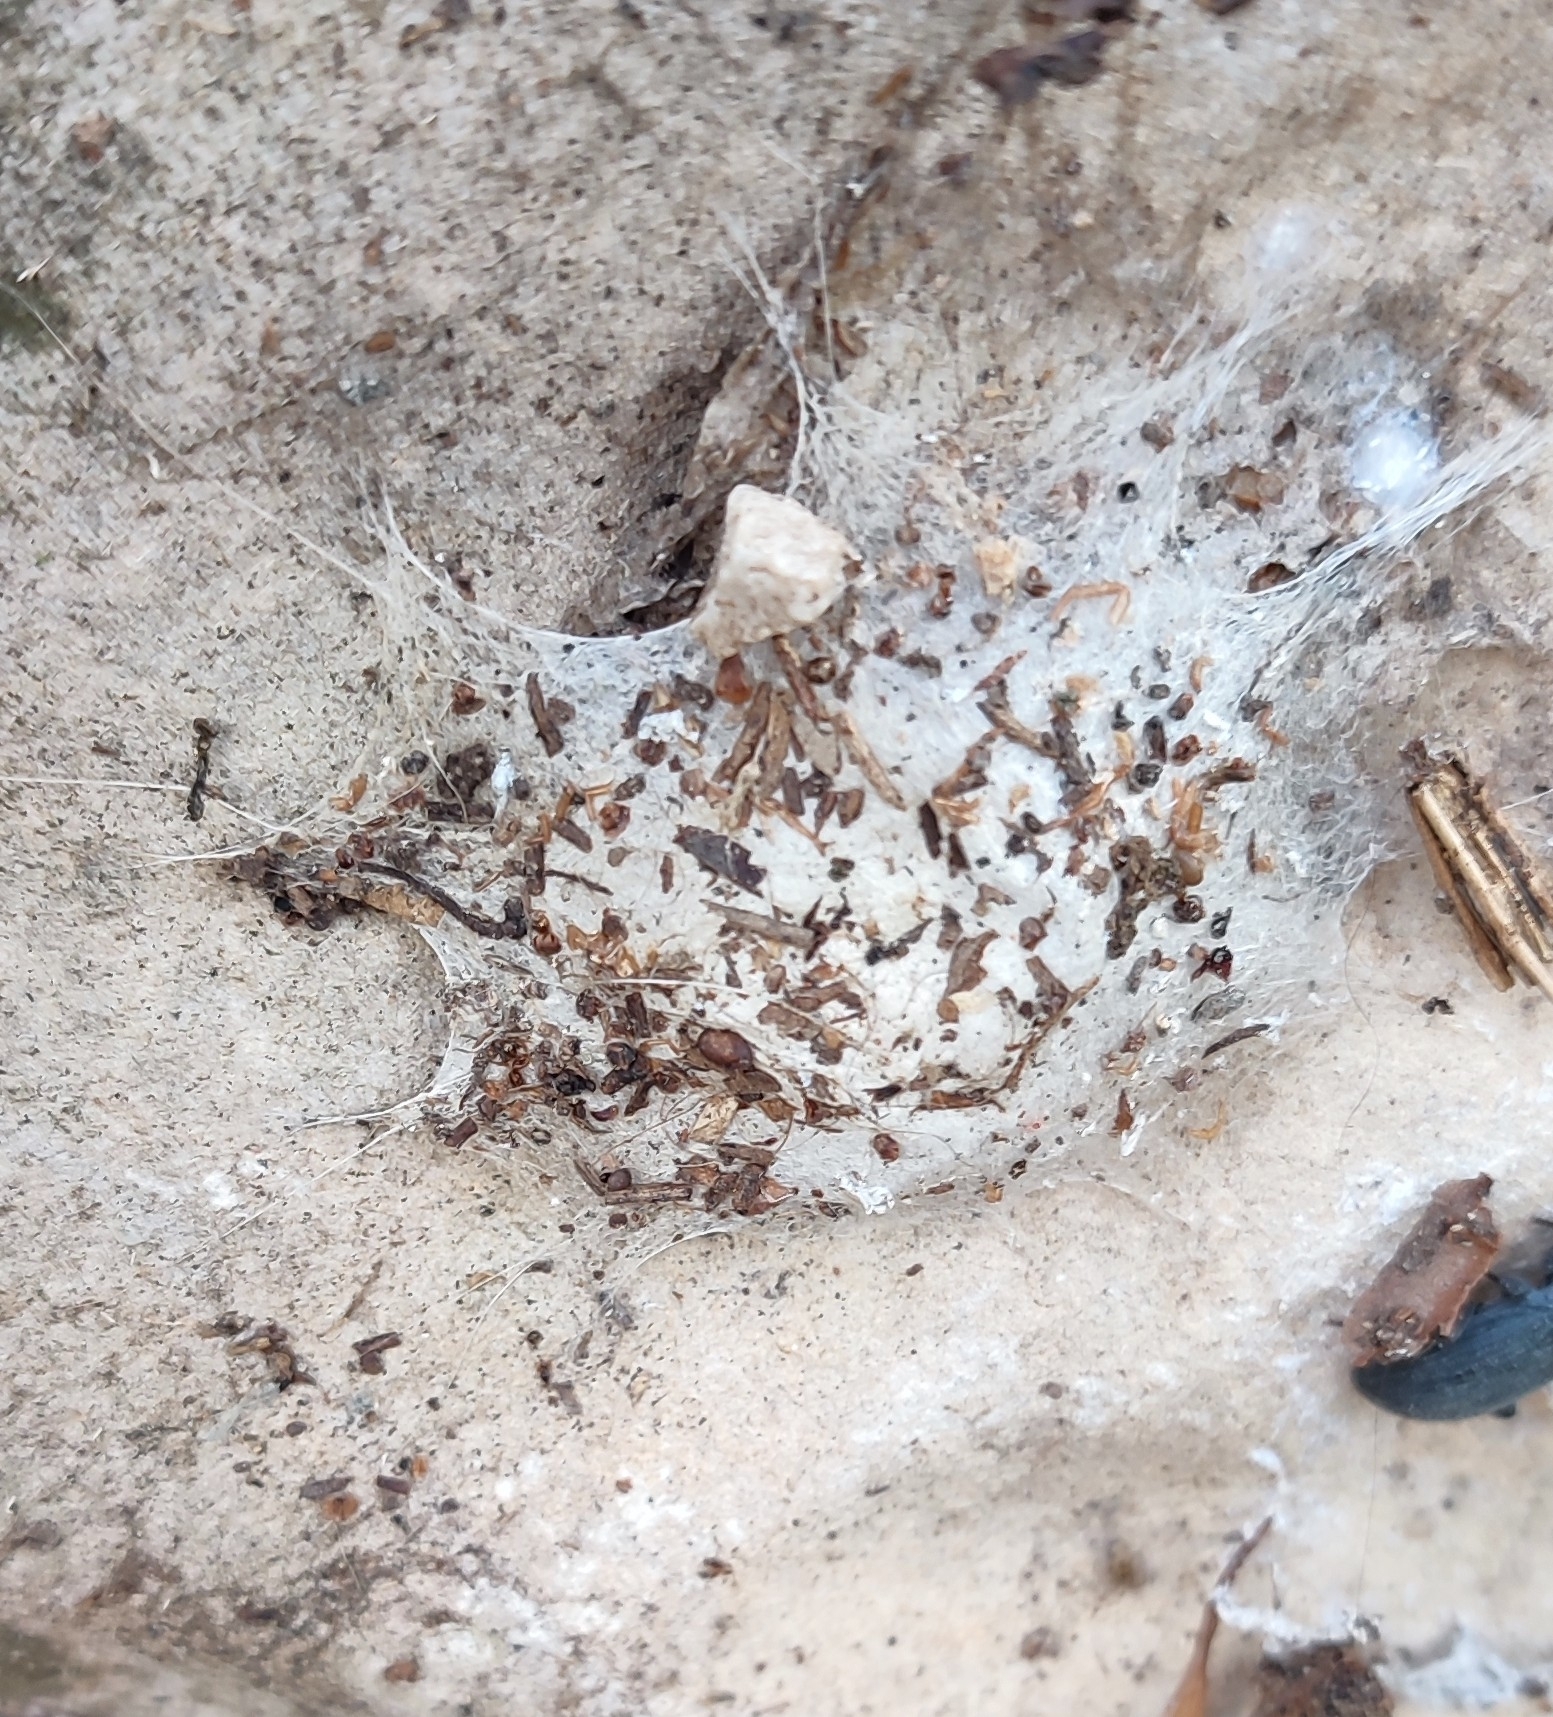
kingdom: Animalia
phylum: Arthropoda
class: Arachnida
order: Araneae
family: Oecobiidae
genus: Uroctea
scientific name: Uroctea durandi
